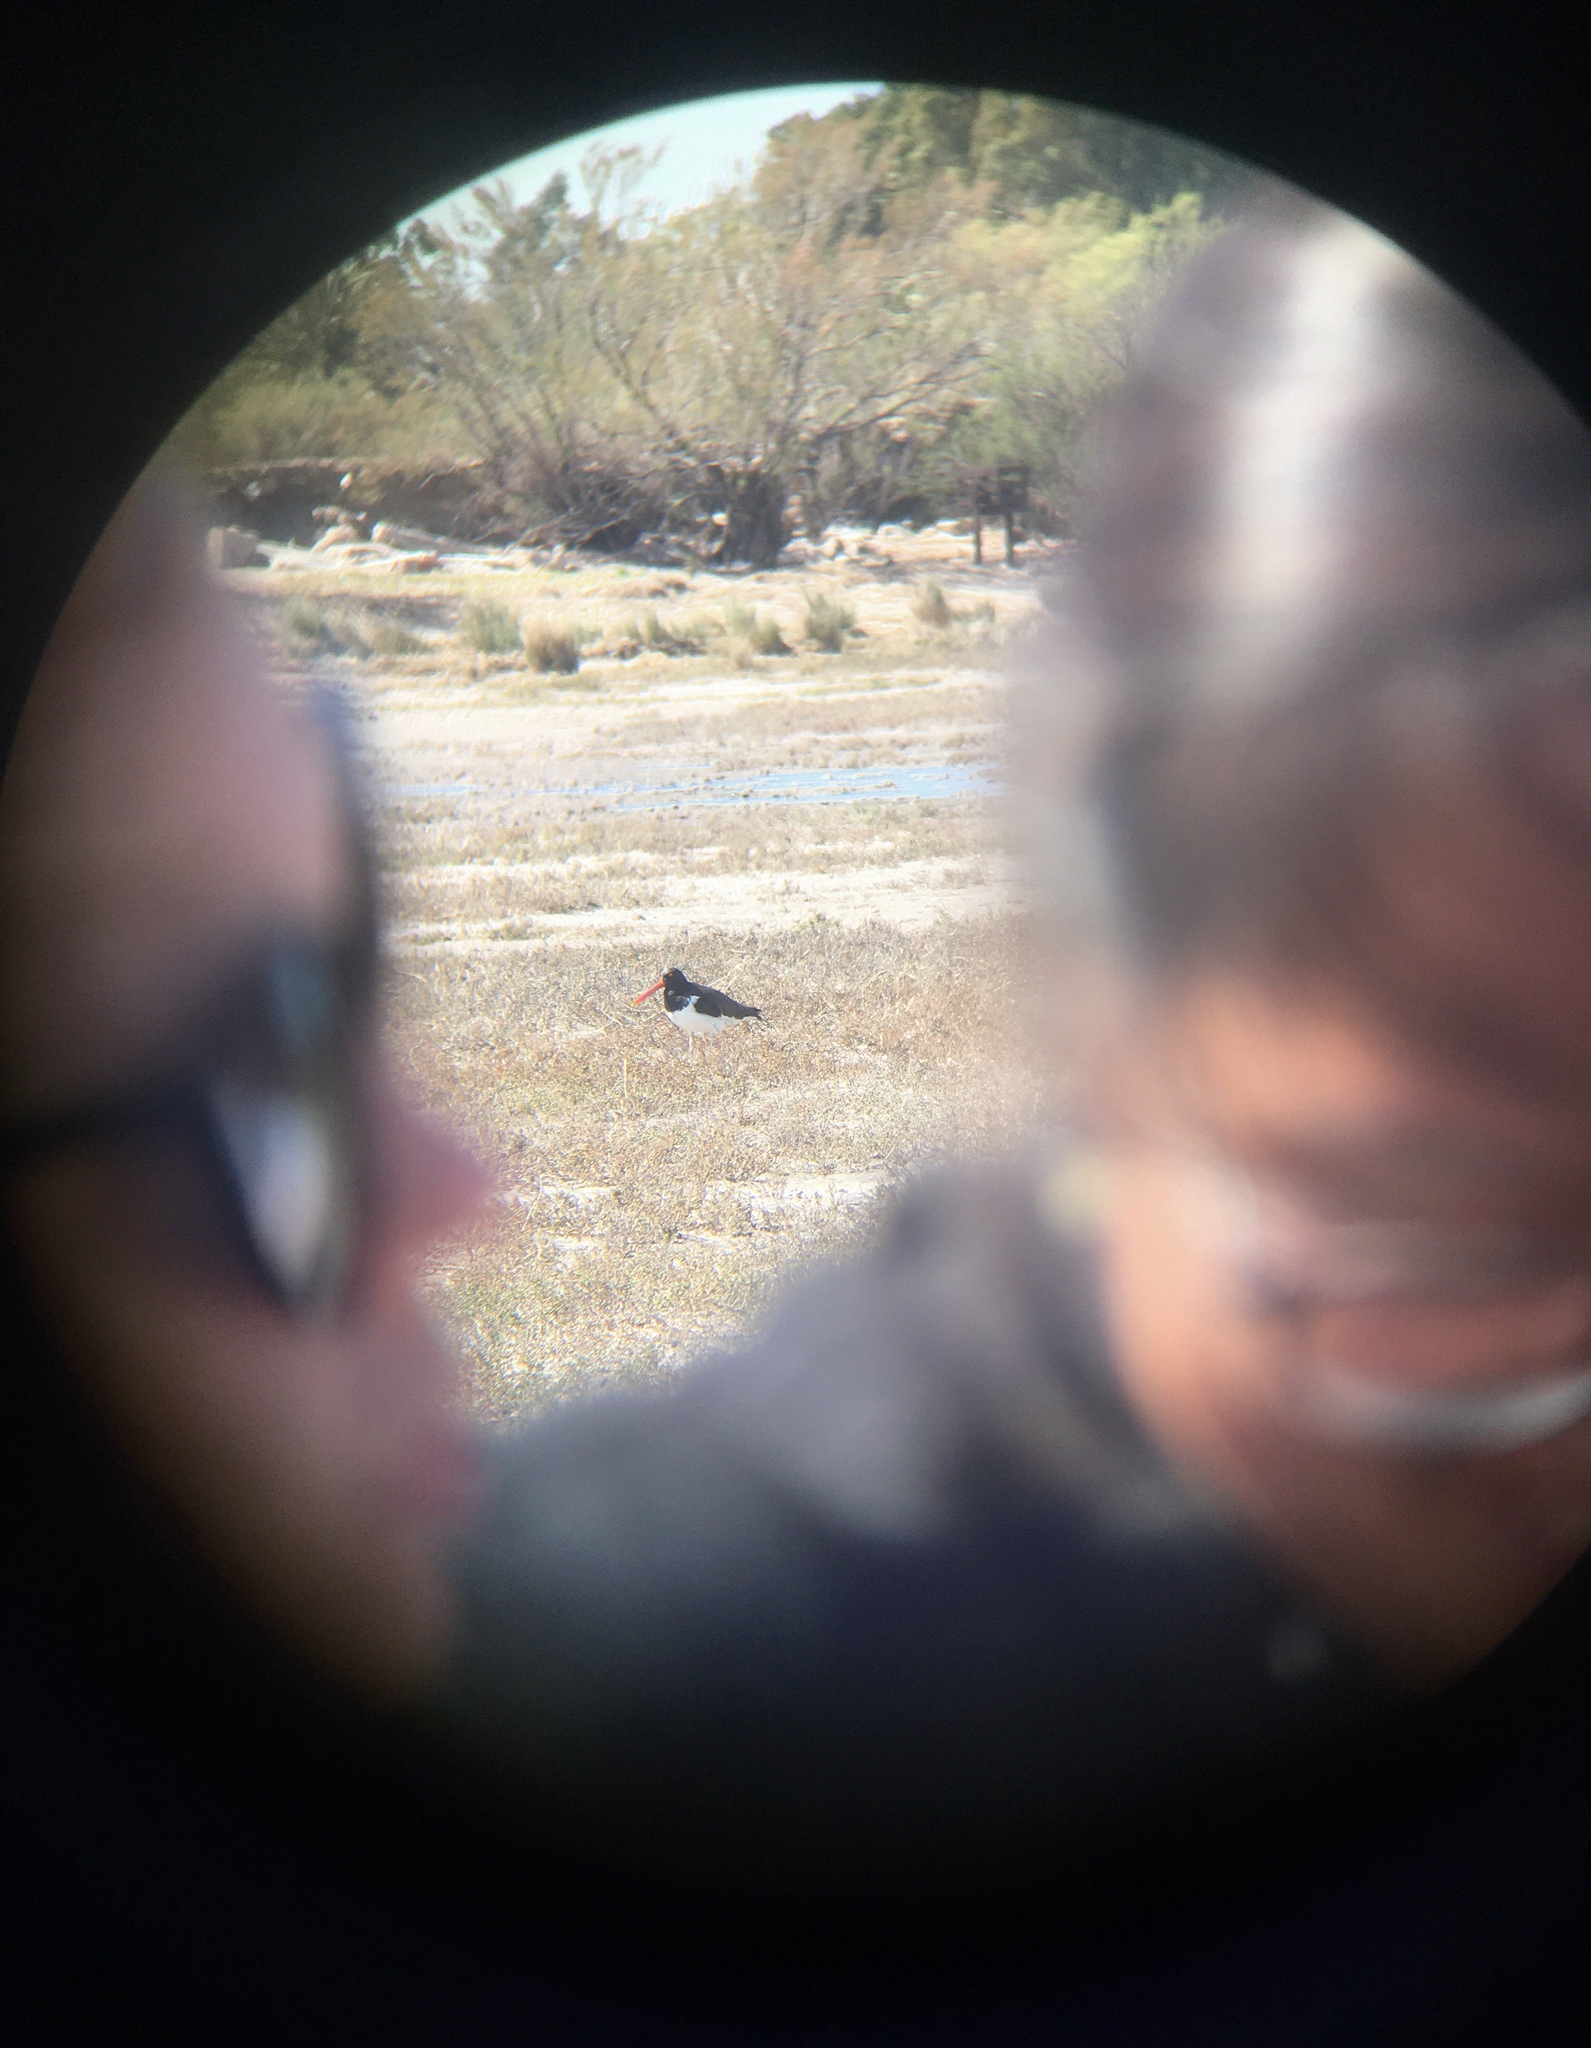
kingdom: Animalia
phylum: Chordata
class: Aves
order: Charadriiformes
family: Haematopodidae
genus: Haematopus
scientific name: Haematopus palliatus
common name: American oystercatcher
